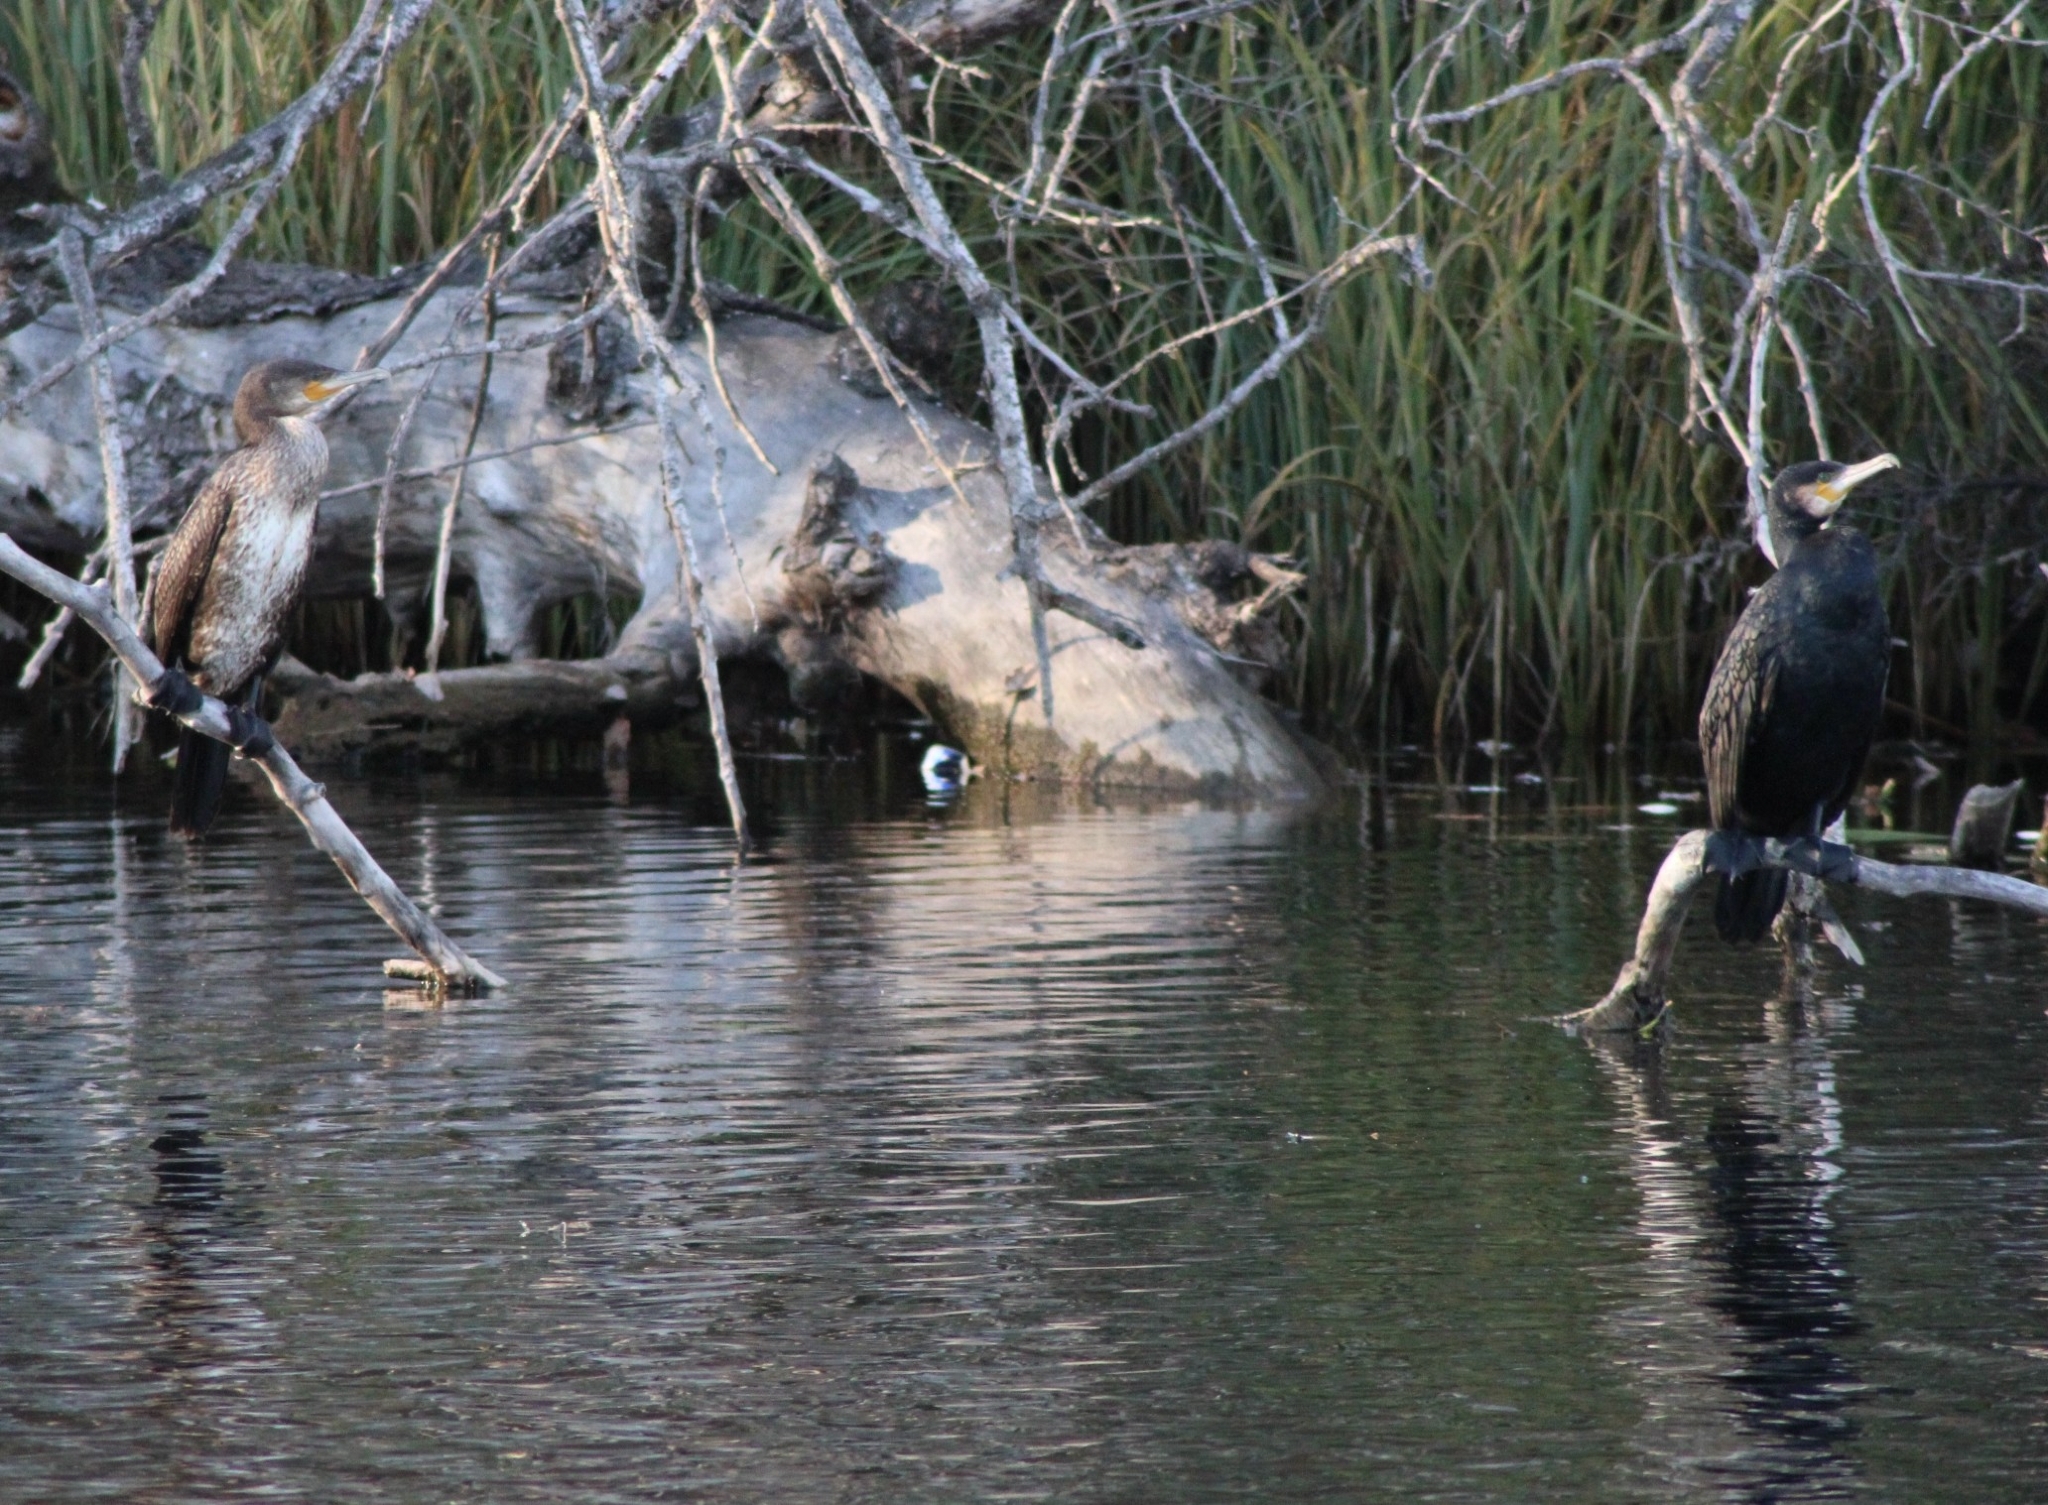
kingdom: Animalia
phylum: Chordata
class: Aves
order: Suliformes
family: Phalacrocoracidae
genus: Phalacrocorax
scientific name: Phalacrocorax carbo
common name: Great cormorant
